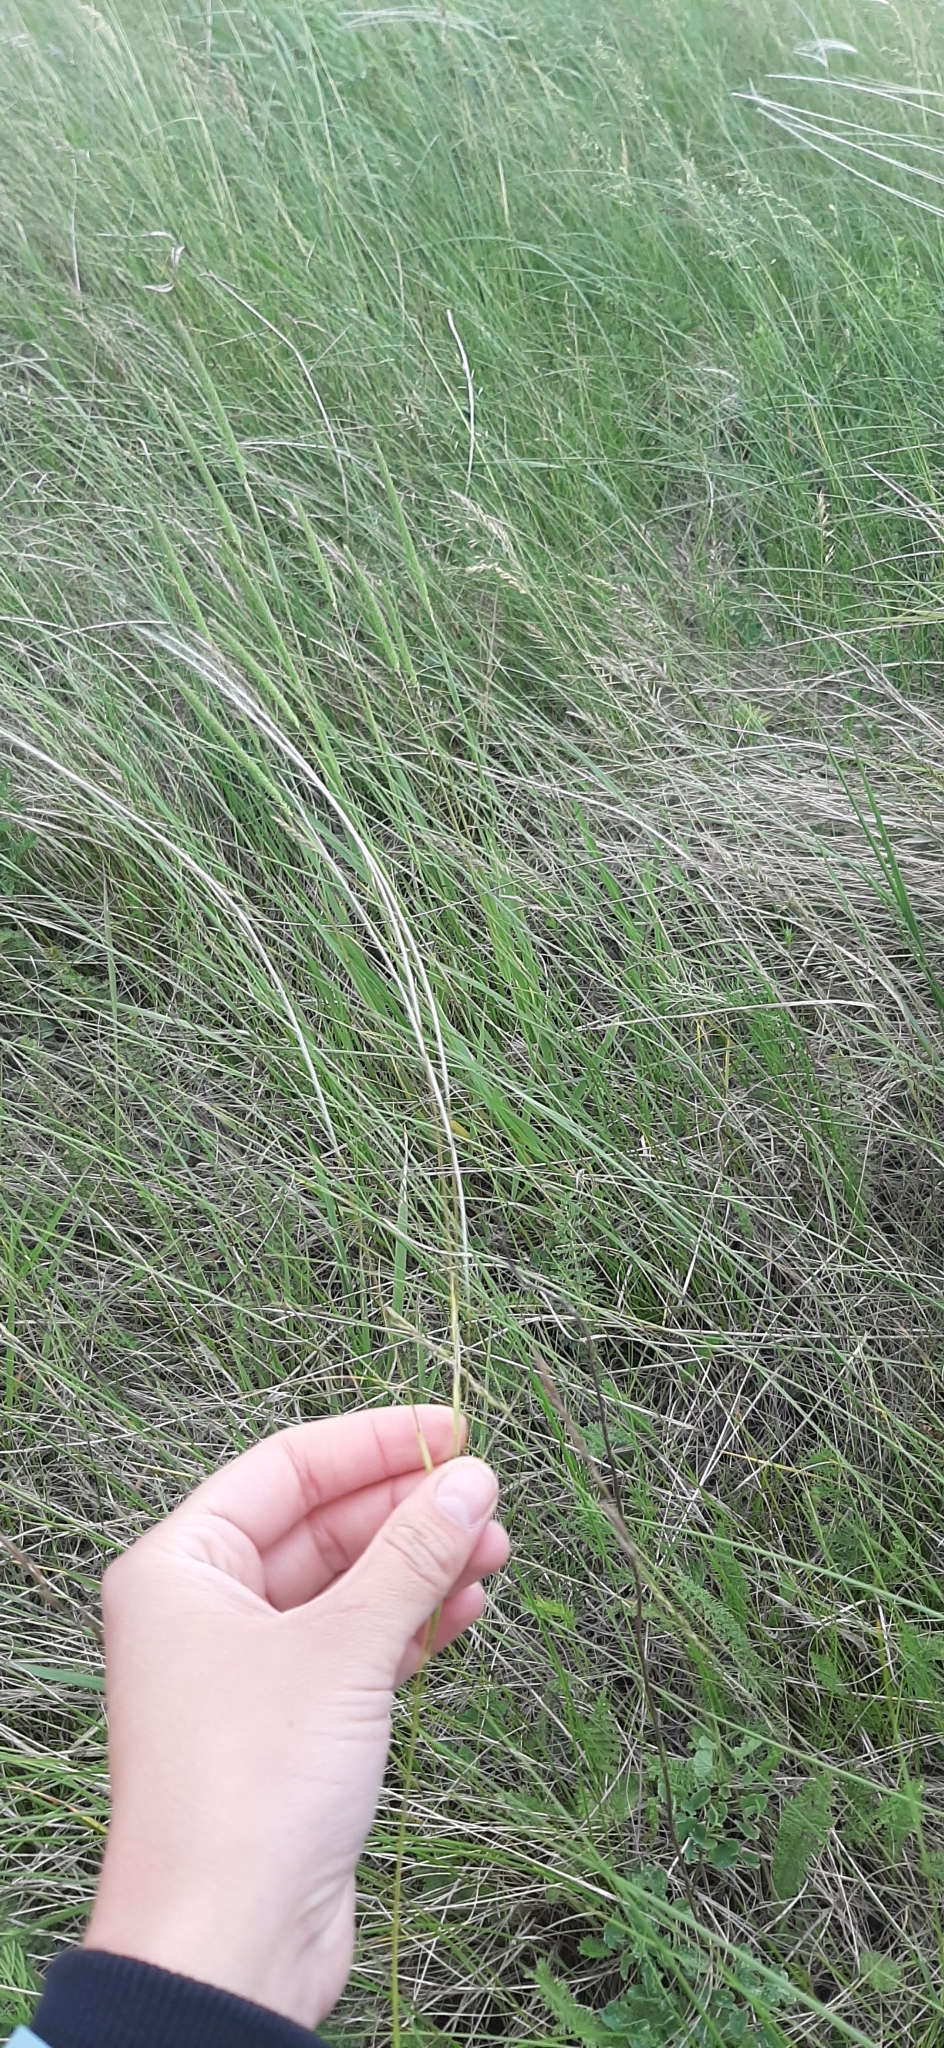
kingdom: Plantae
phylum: Tracheophyta
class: Liliopsida
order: Poales
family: Poaceae
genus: Stipa
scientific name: Stipa pennata
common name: European feather grass
